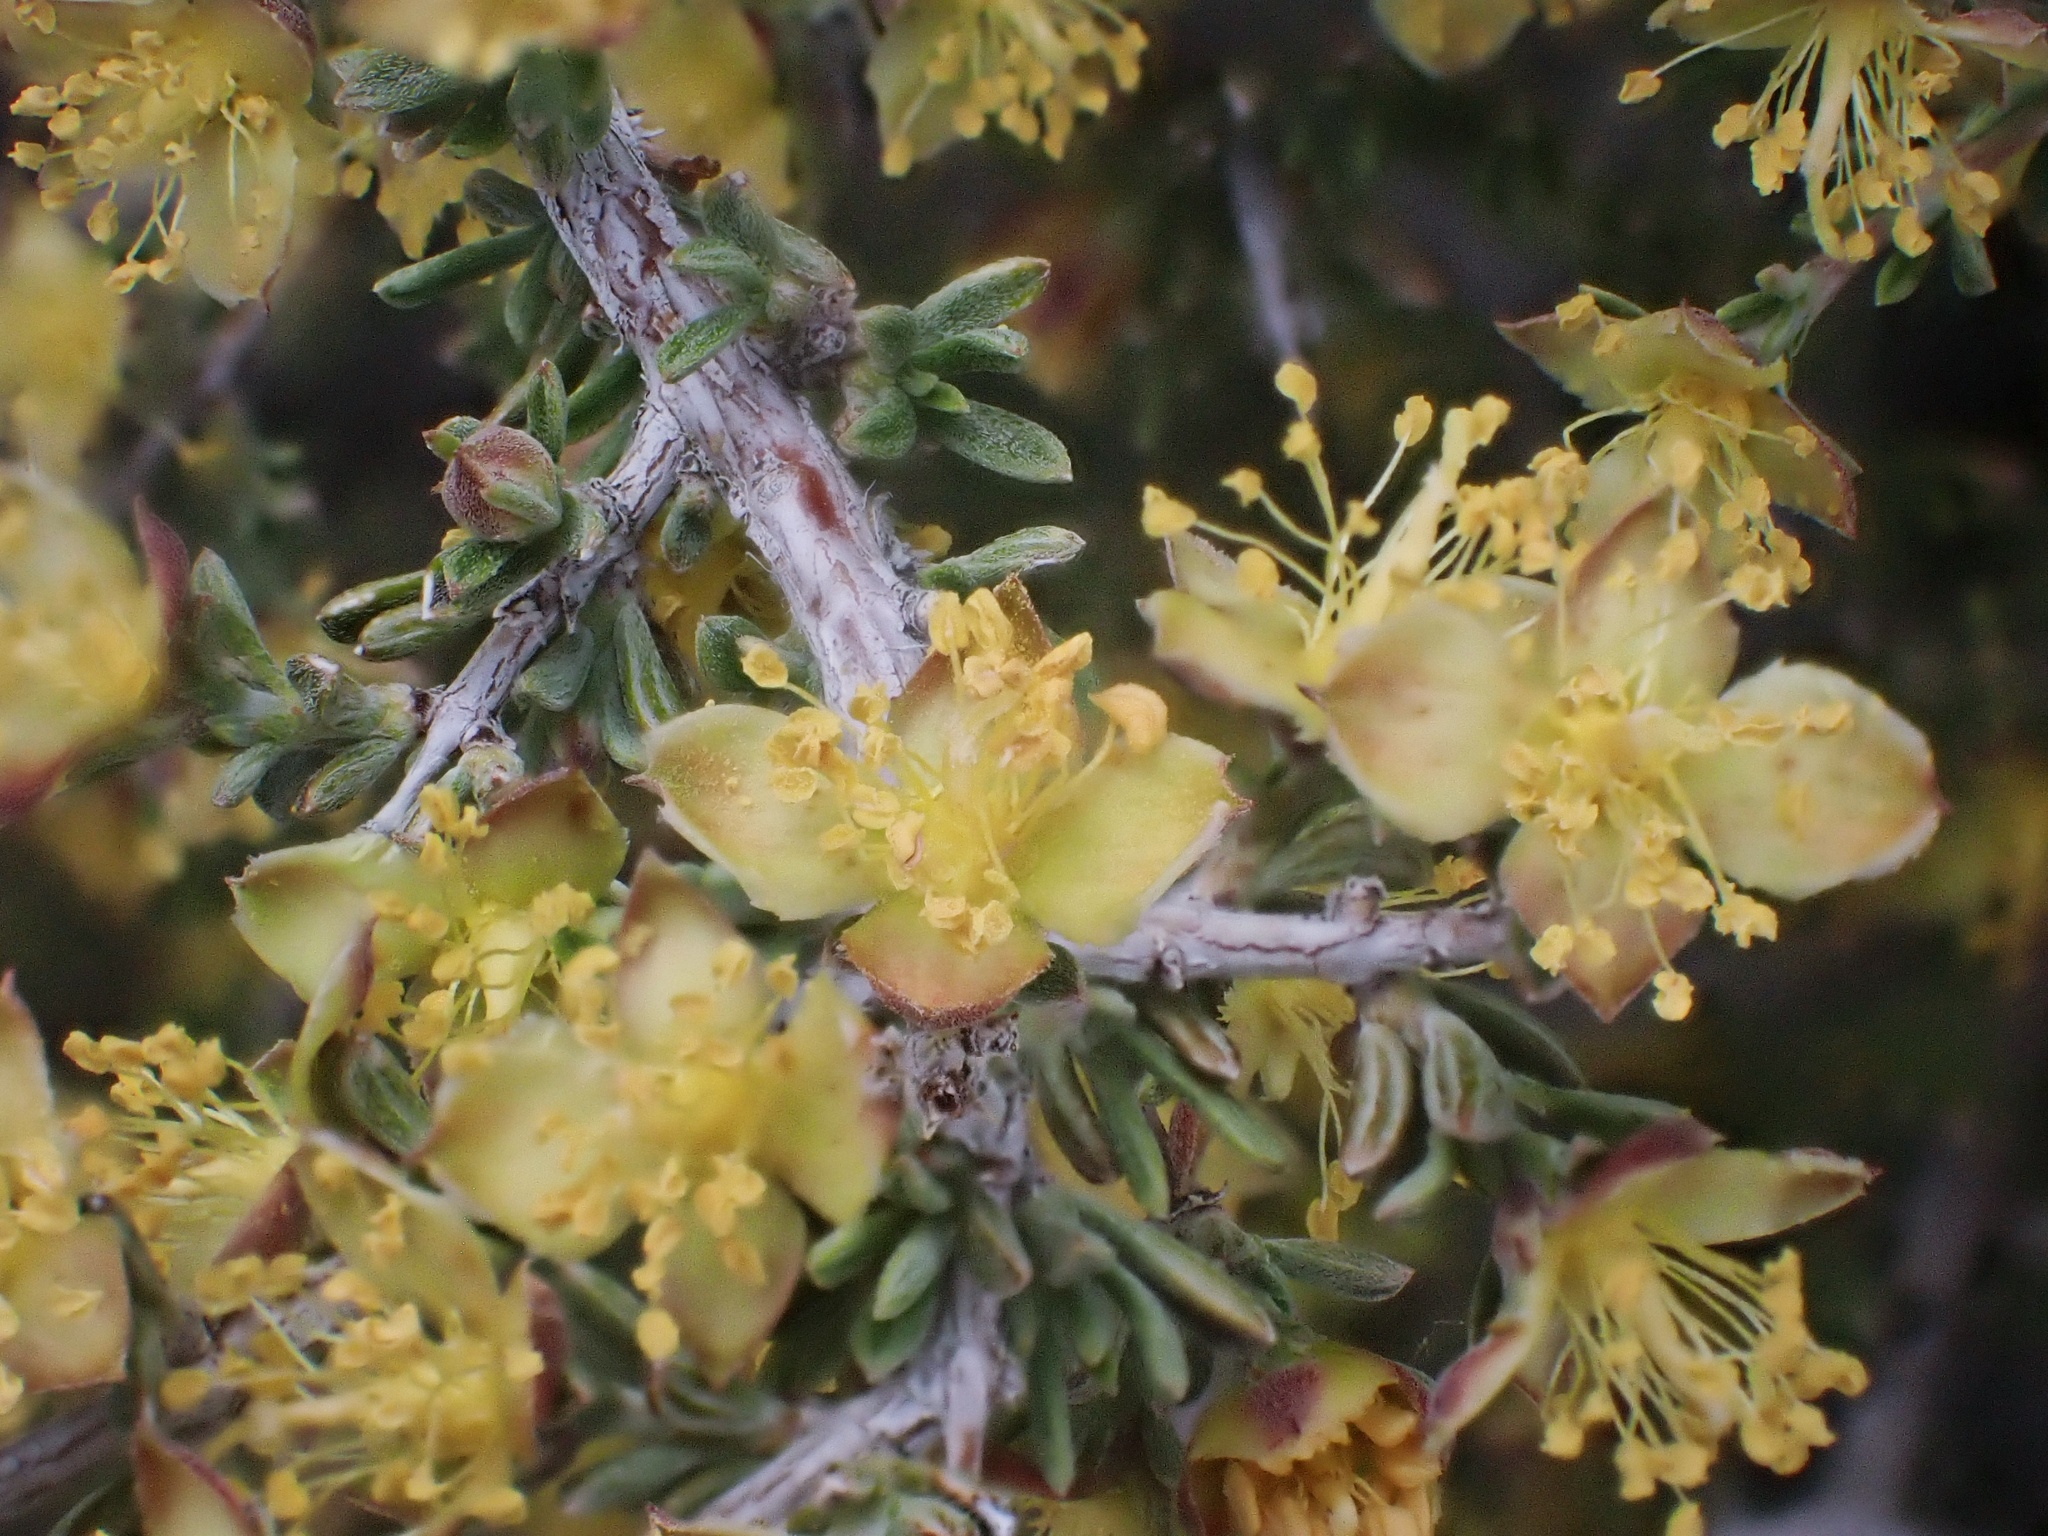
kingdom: Plantae
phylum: Tracheophyta
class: Magnoliopsida
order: Rosales
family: Rosaceae
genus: Coleogyne
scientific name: Coleogyne ramosissima
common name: Blackbrush
